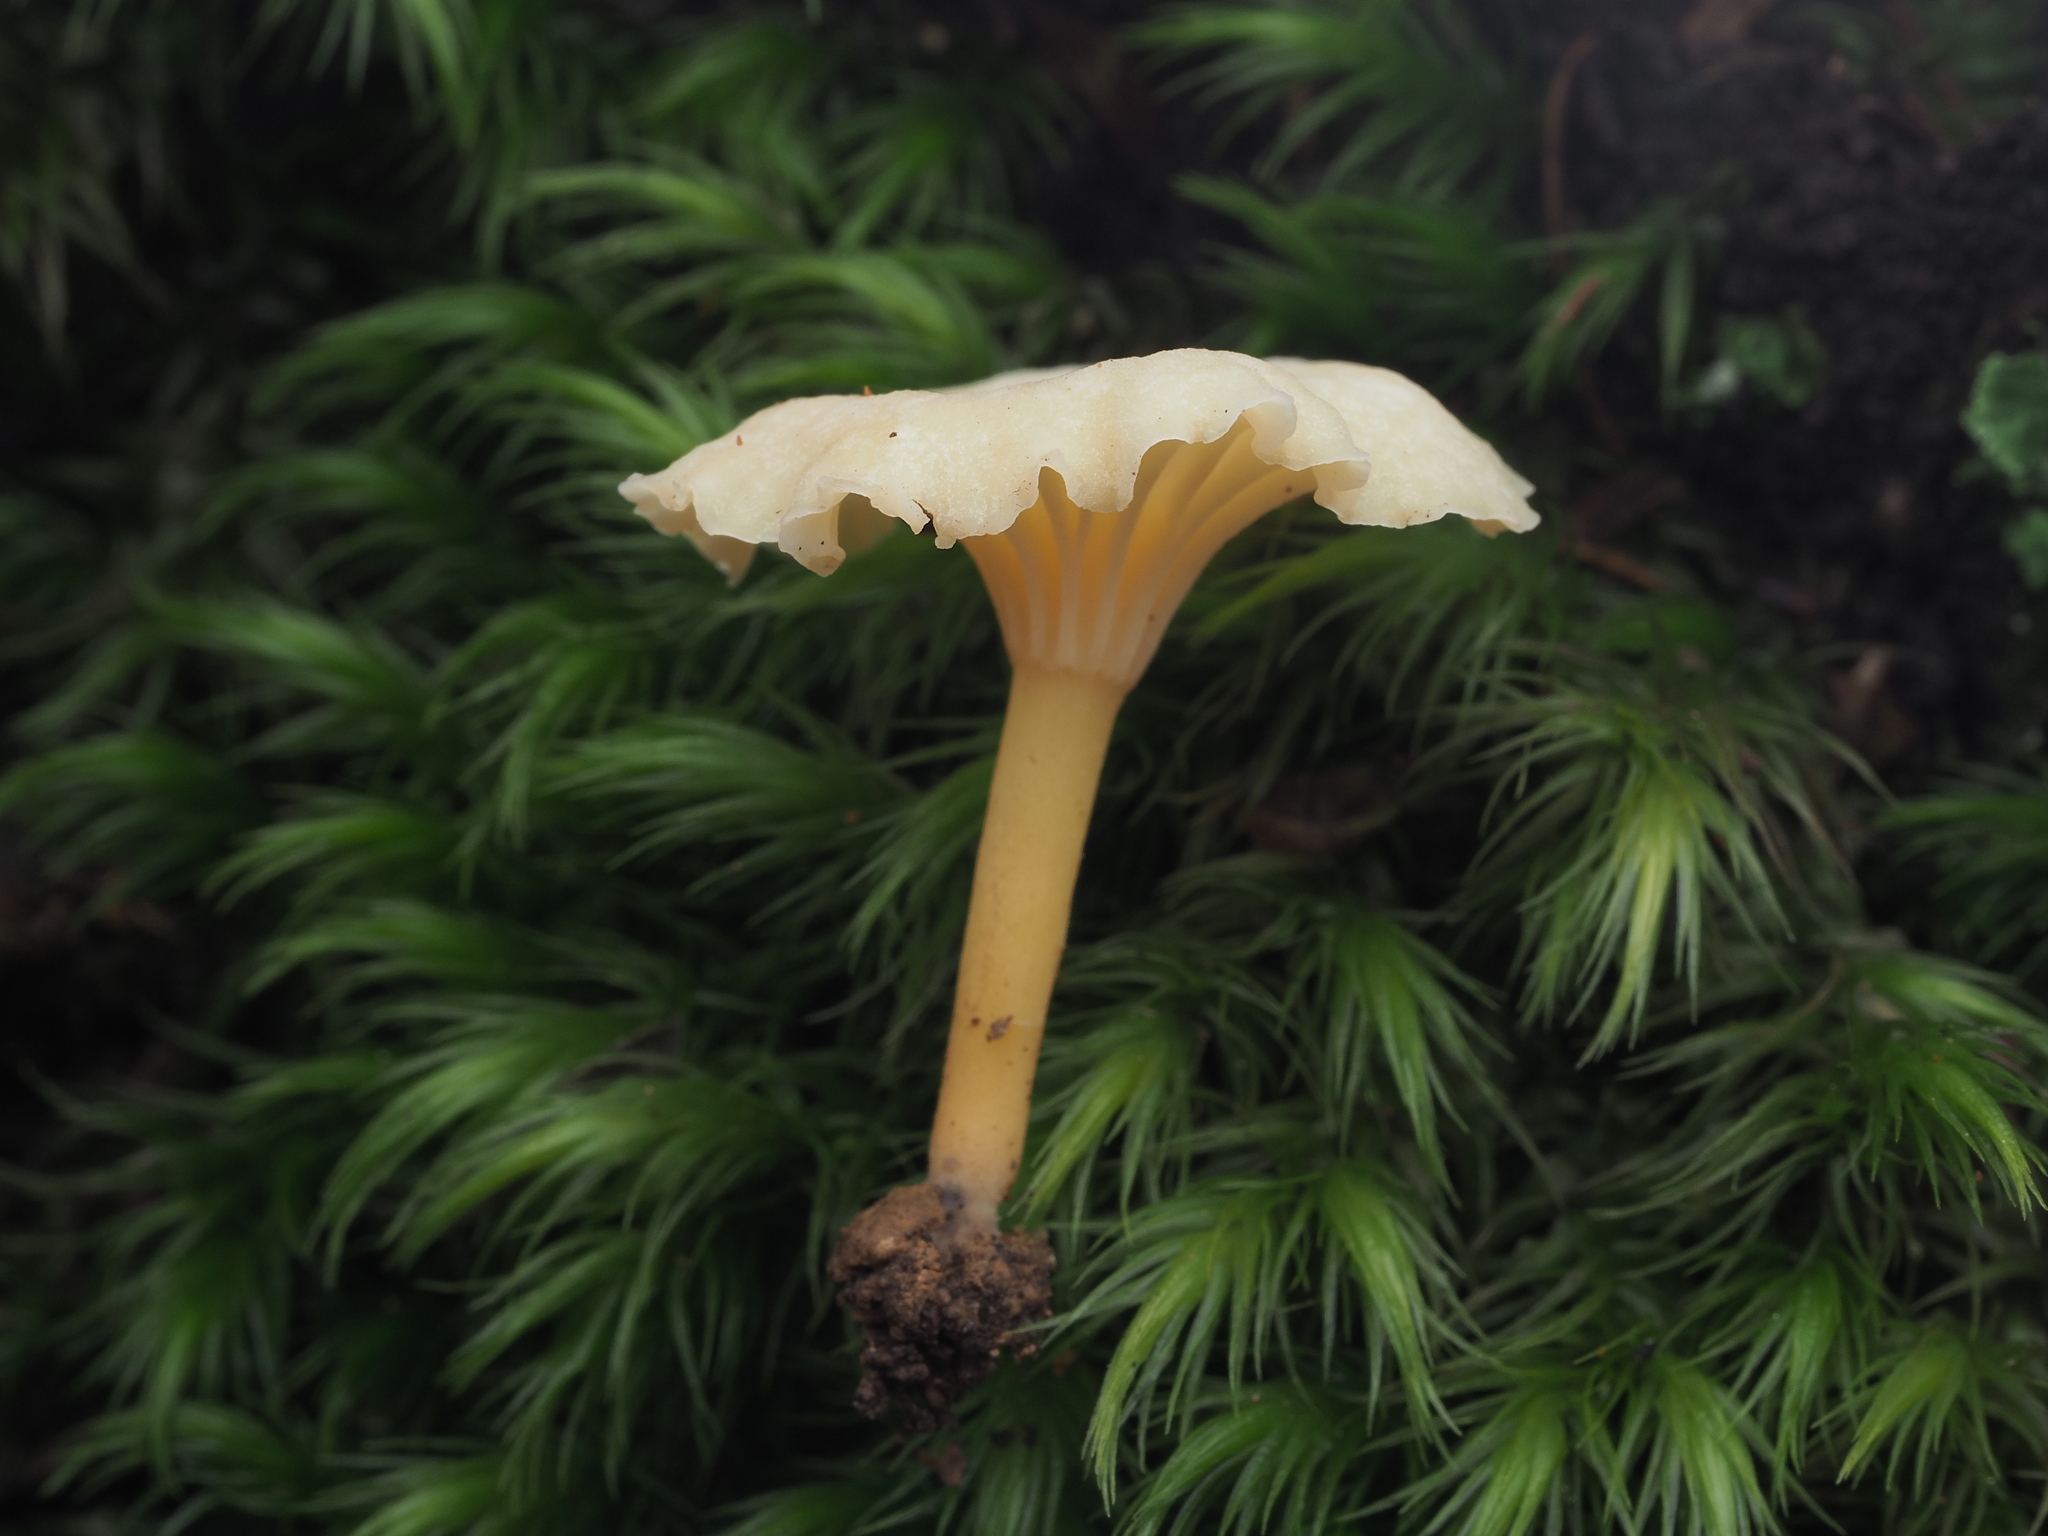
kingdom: Fungi
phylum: Basidiomycota
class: Agaricomycetes
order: Cantharellales
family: Hydnaceae
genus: Cantharellus
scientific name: Cantharellus wellingtonensis
